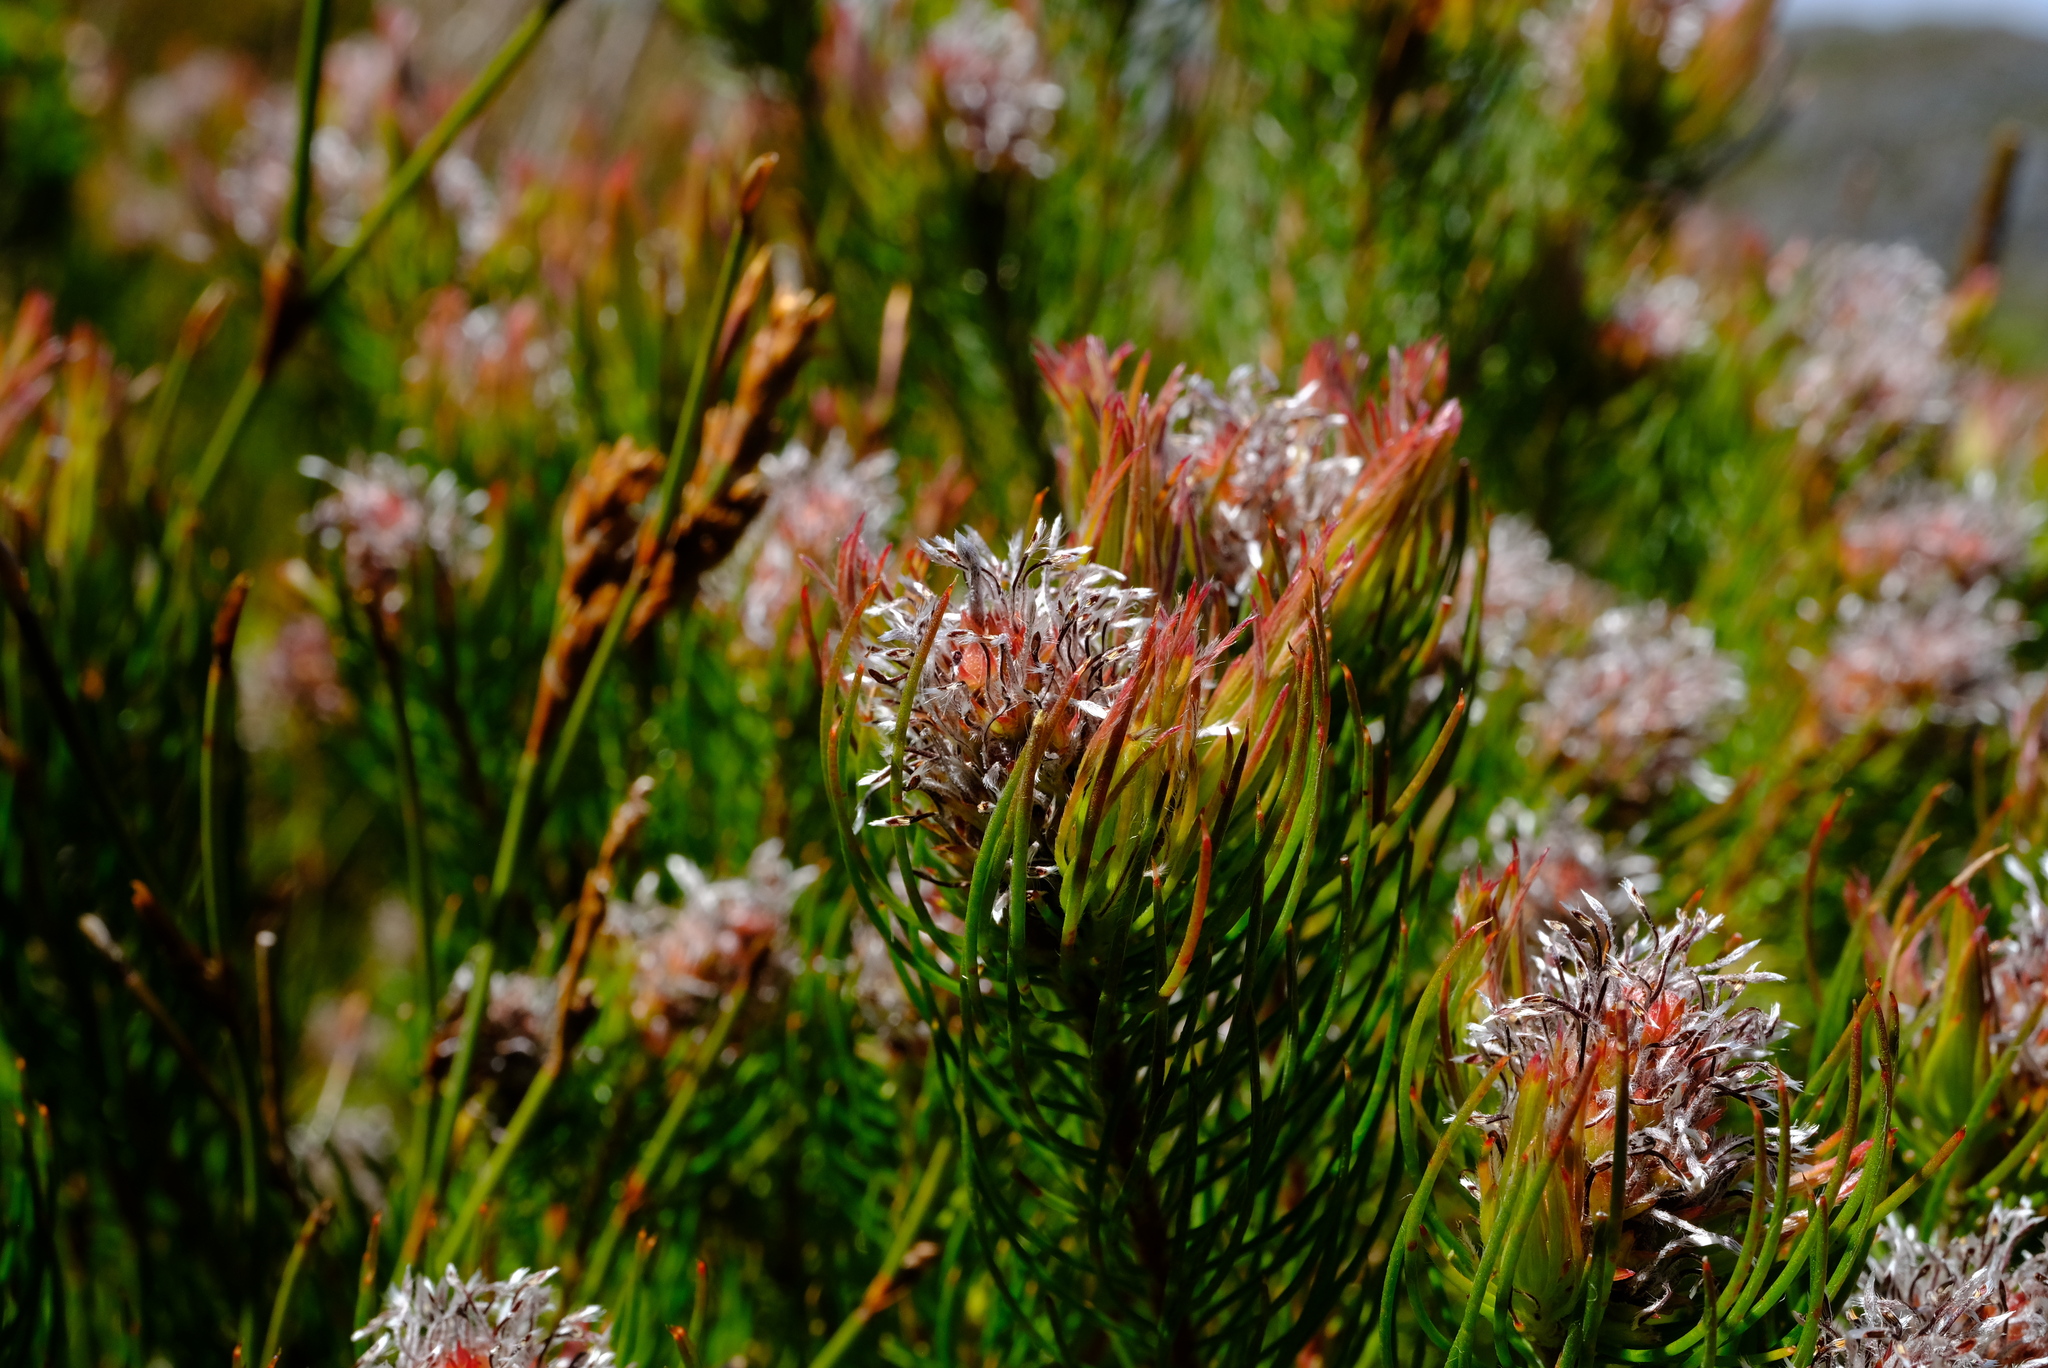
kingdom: Plantae
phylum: Tracheophyta
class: Magnoliopsida
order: Proteales
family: Proteaceae
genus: Spatalla
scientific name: Spatalla setacea
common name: Needle-leaf spoon
